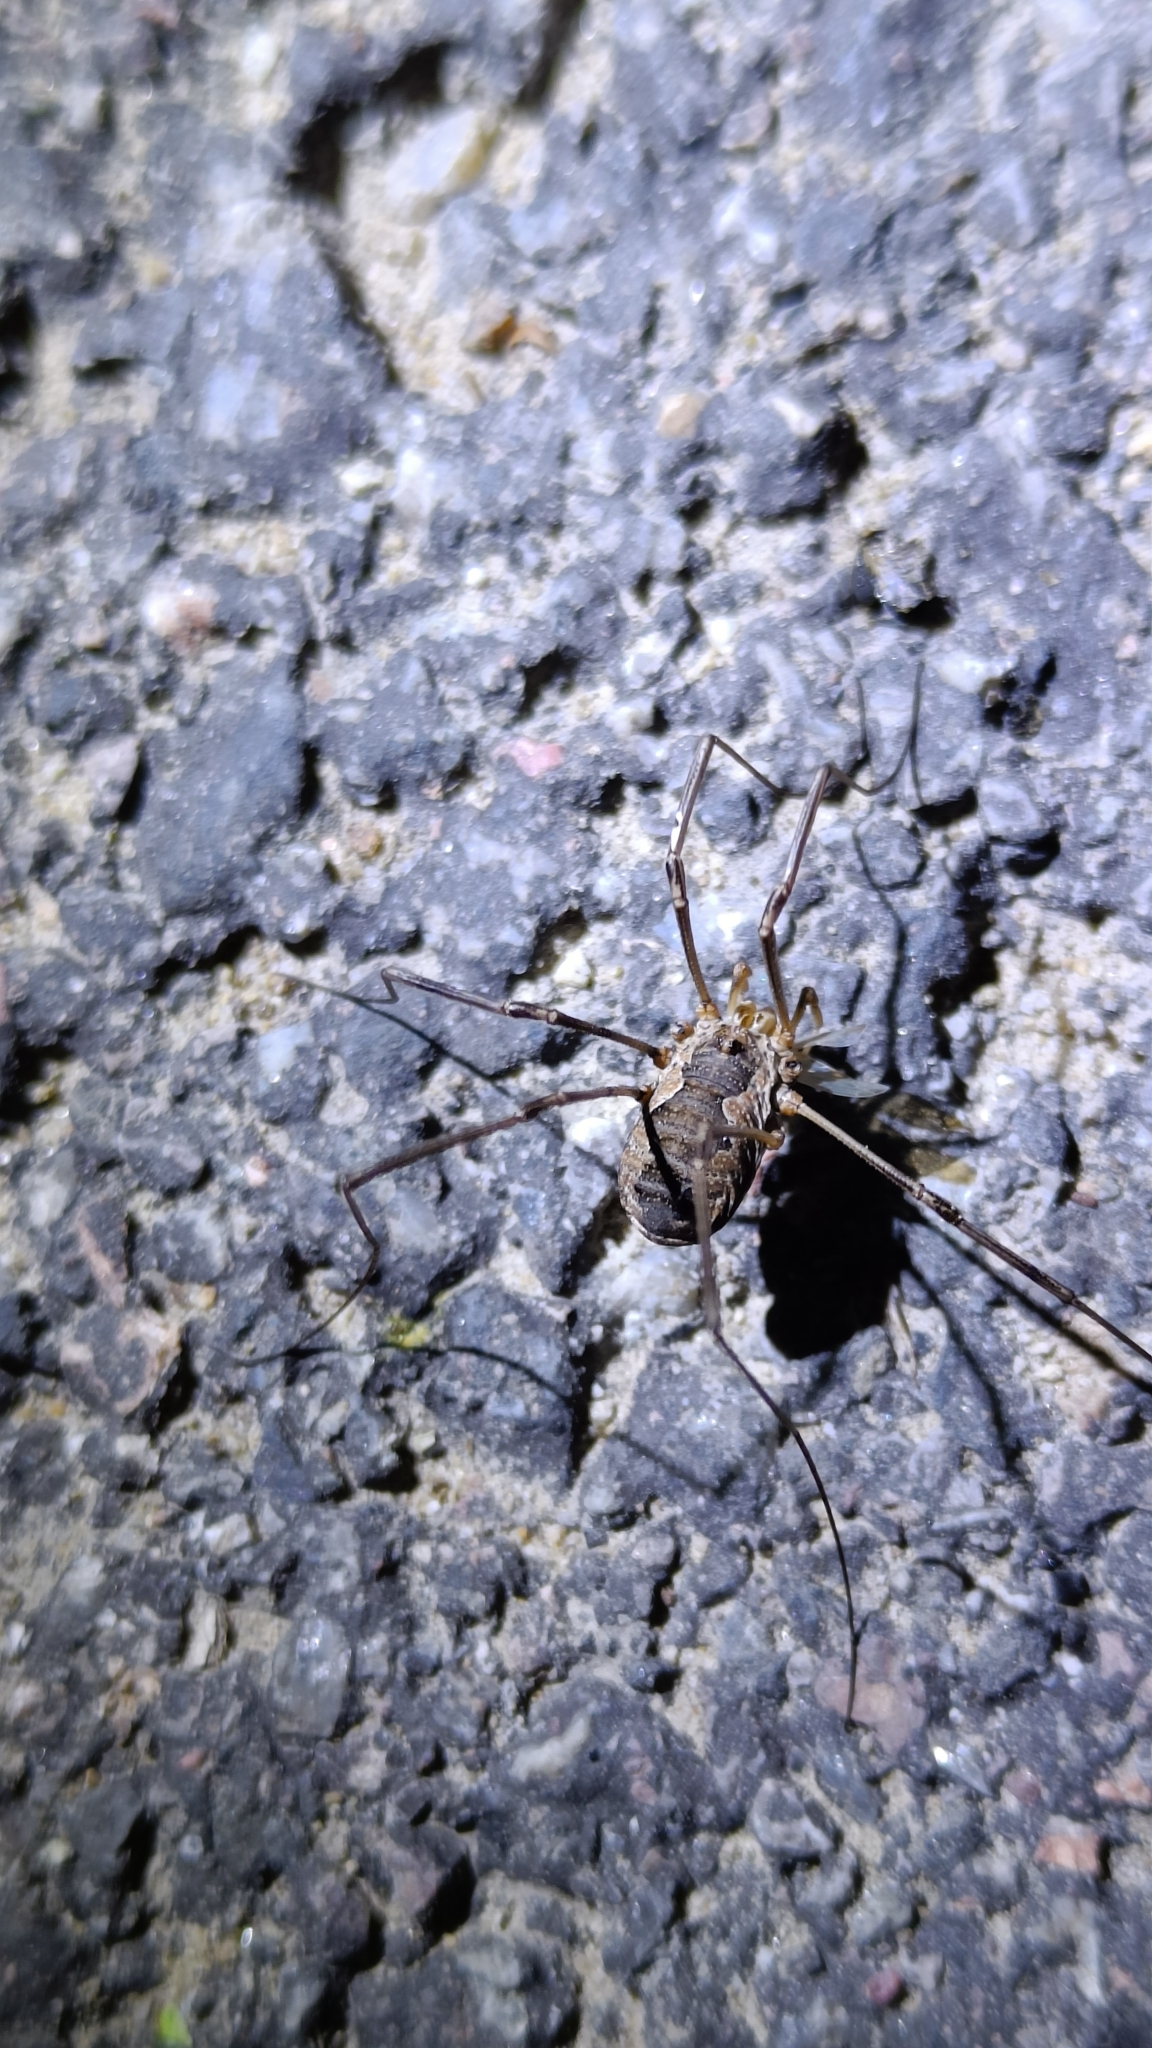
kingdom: Animalia
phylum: Arthropoda
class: Arachnida
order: Opiliones
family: Phalangiidae
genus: Phalangium
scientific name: Phalangium opilio
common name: Daddy longleg
